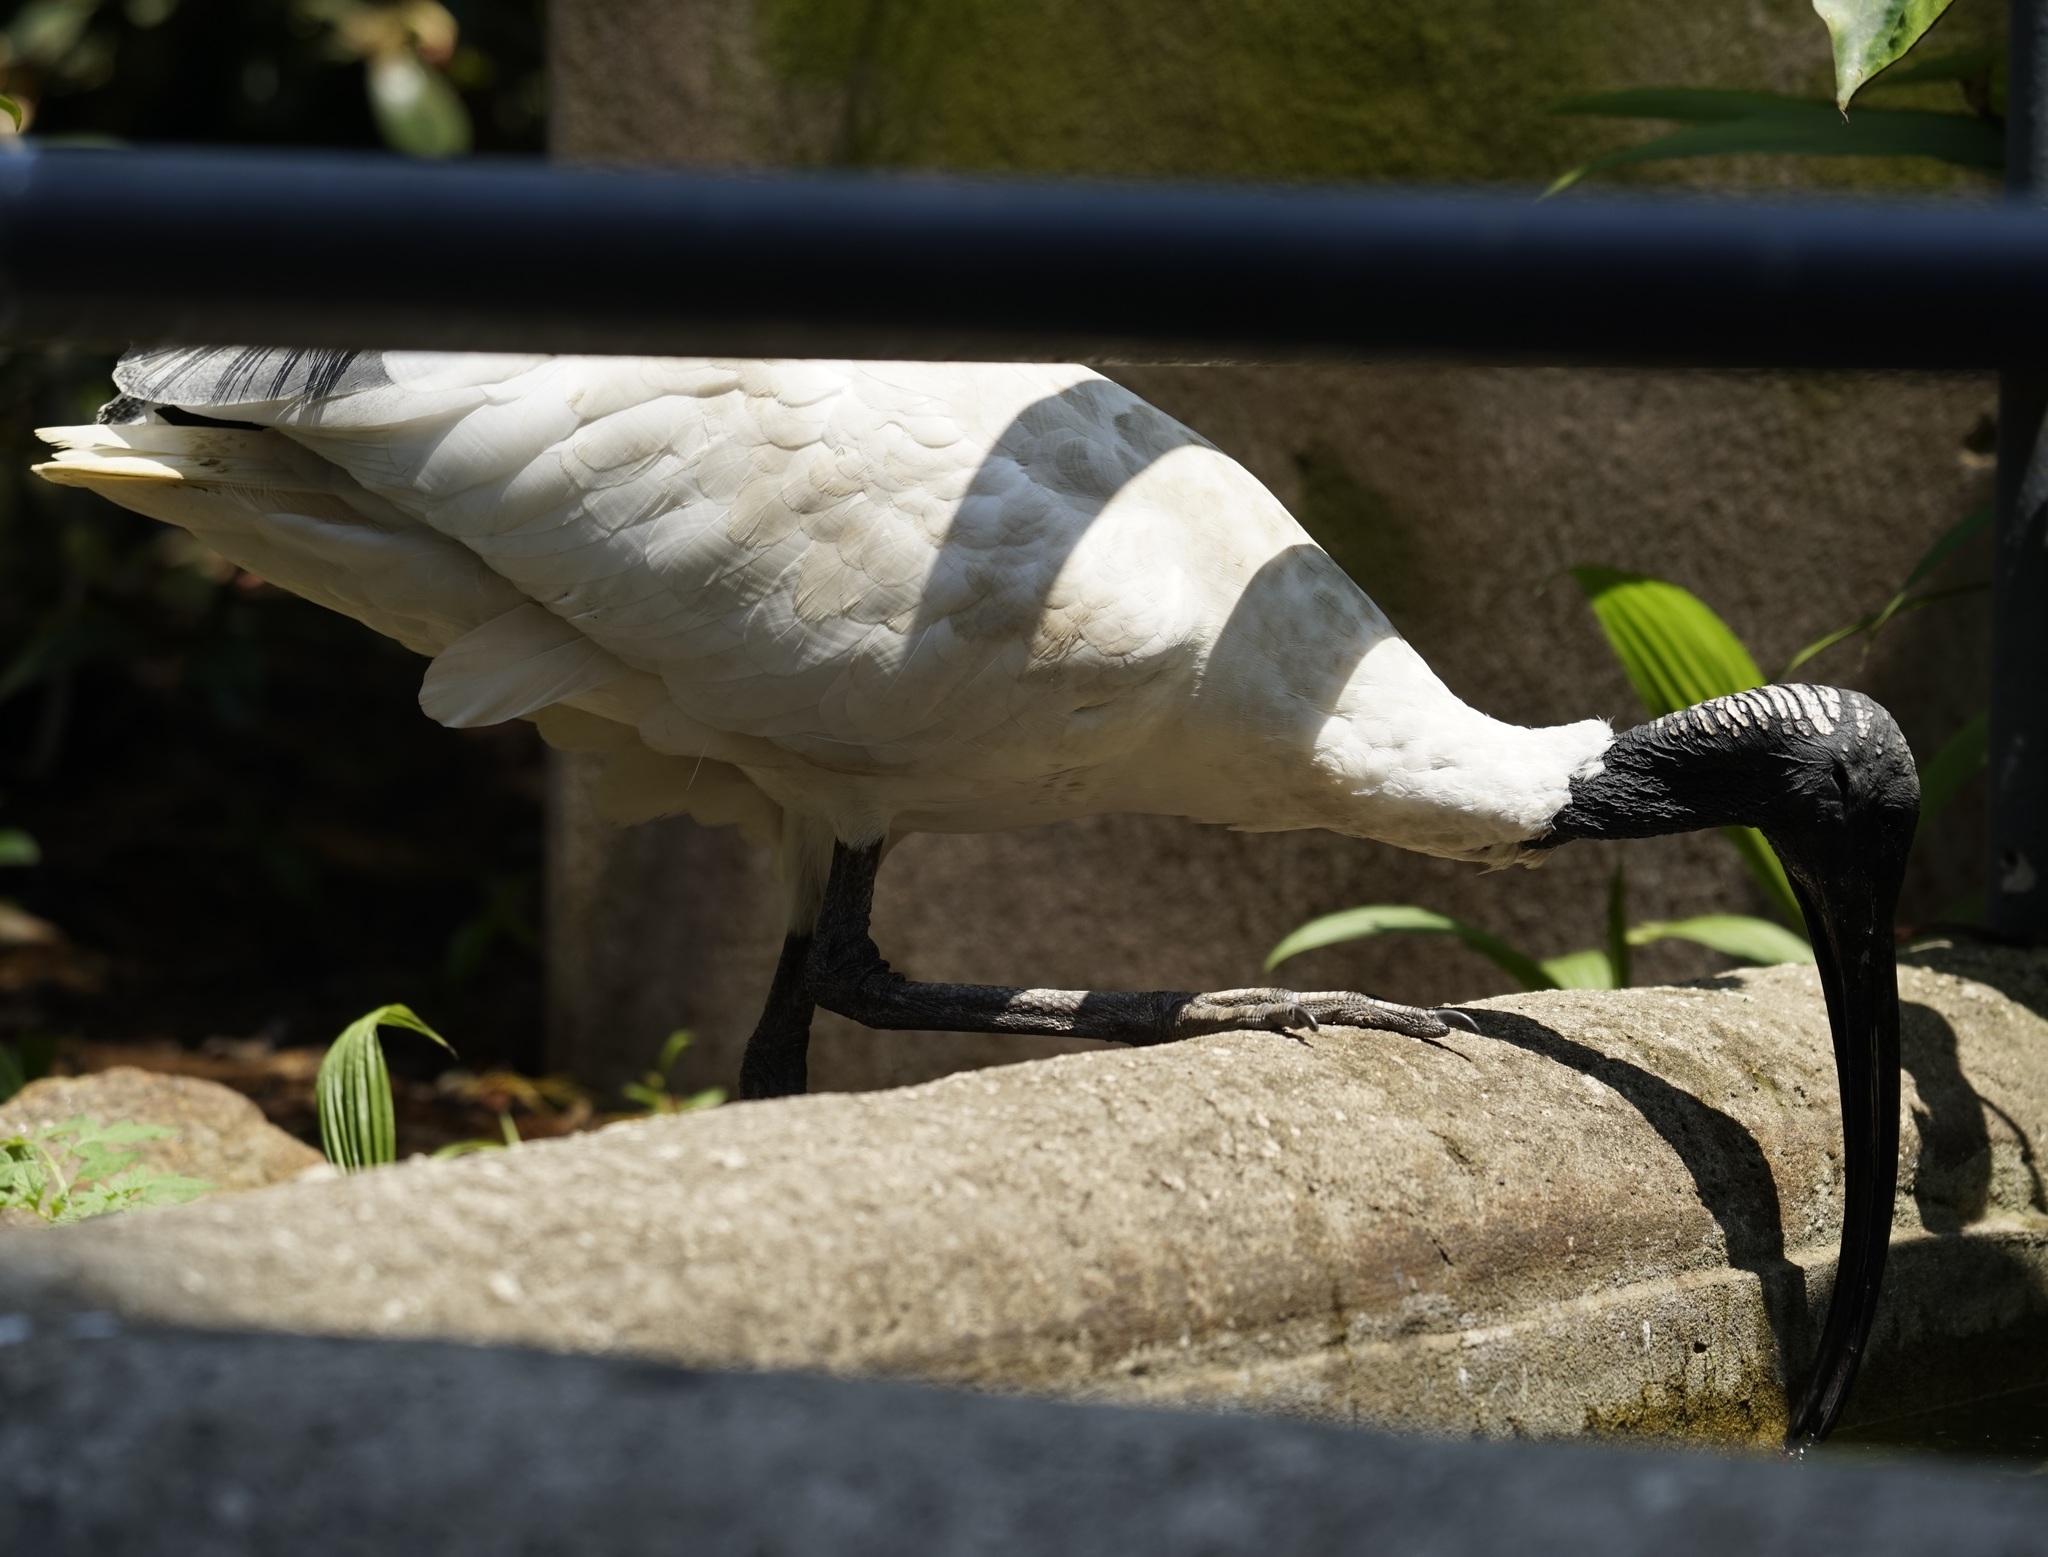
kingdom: Animalia
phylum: Chordata
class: Aves
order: Pelecaniformes
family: Threskiornithidae
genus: Threskiornis
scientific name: Threskiornis molucca
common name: Australian white ibis
